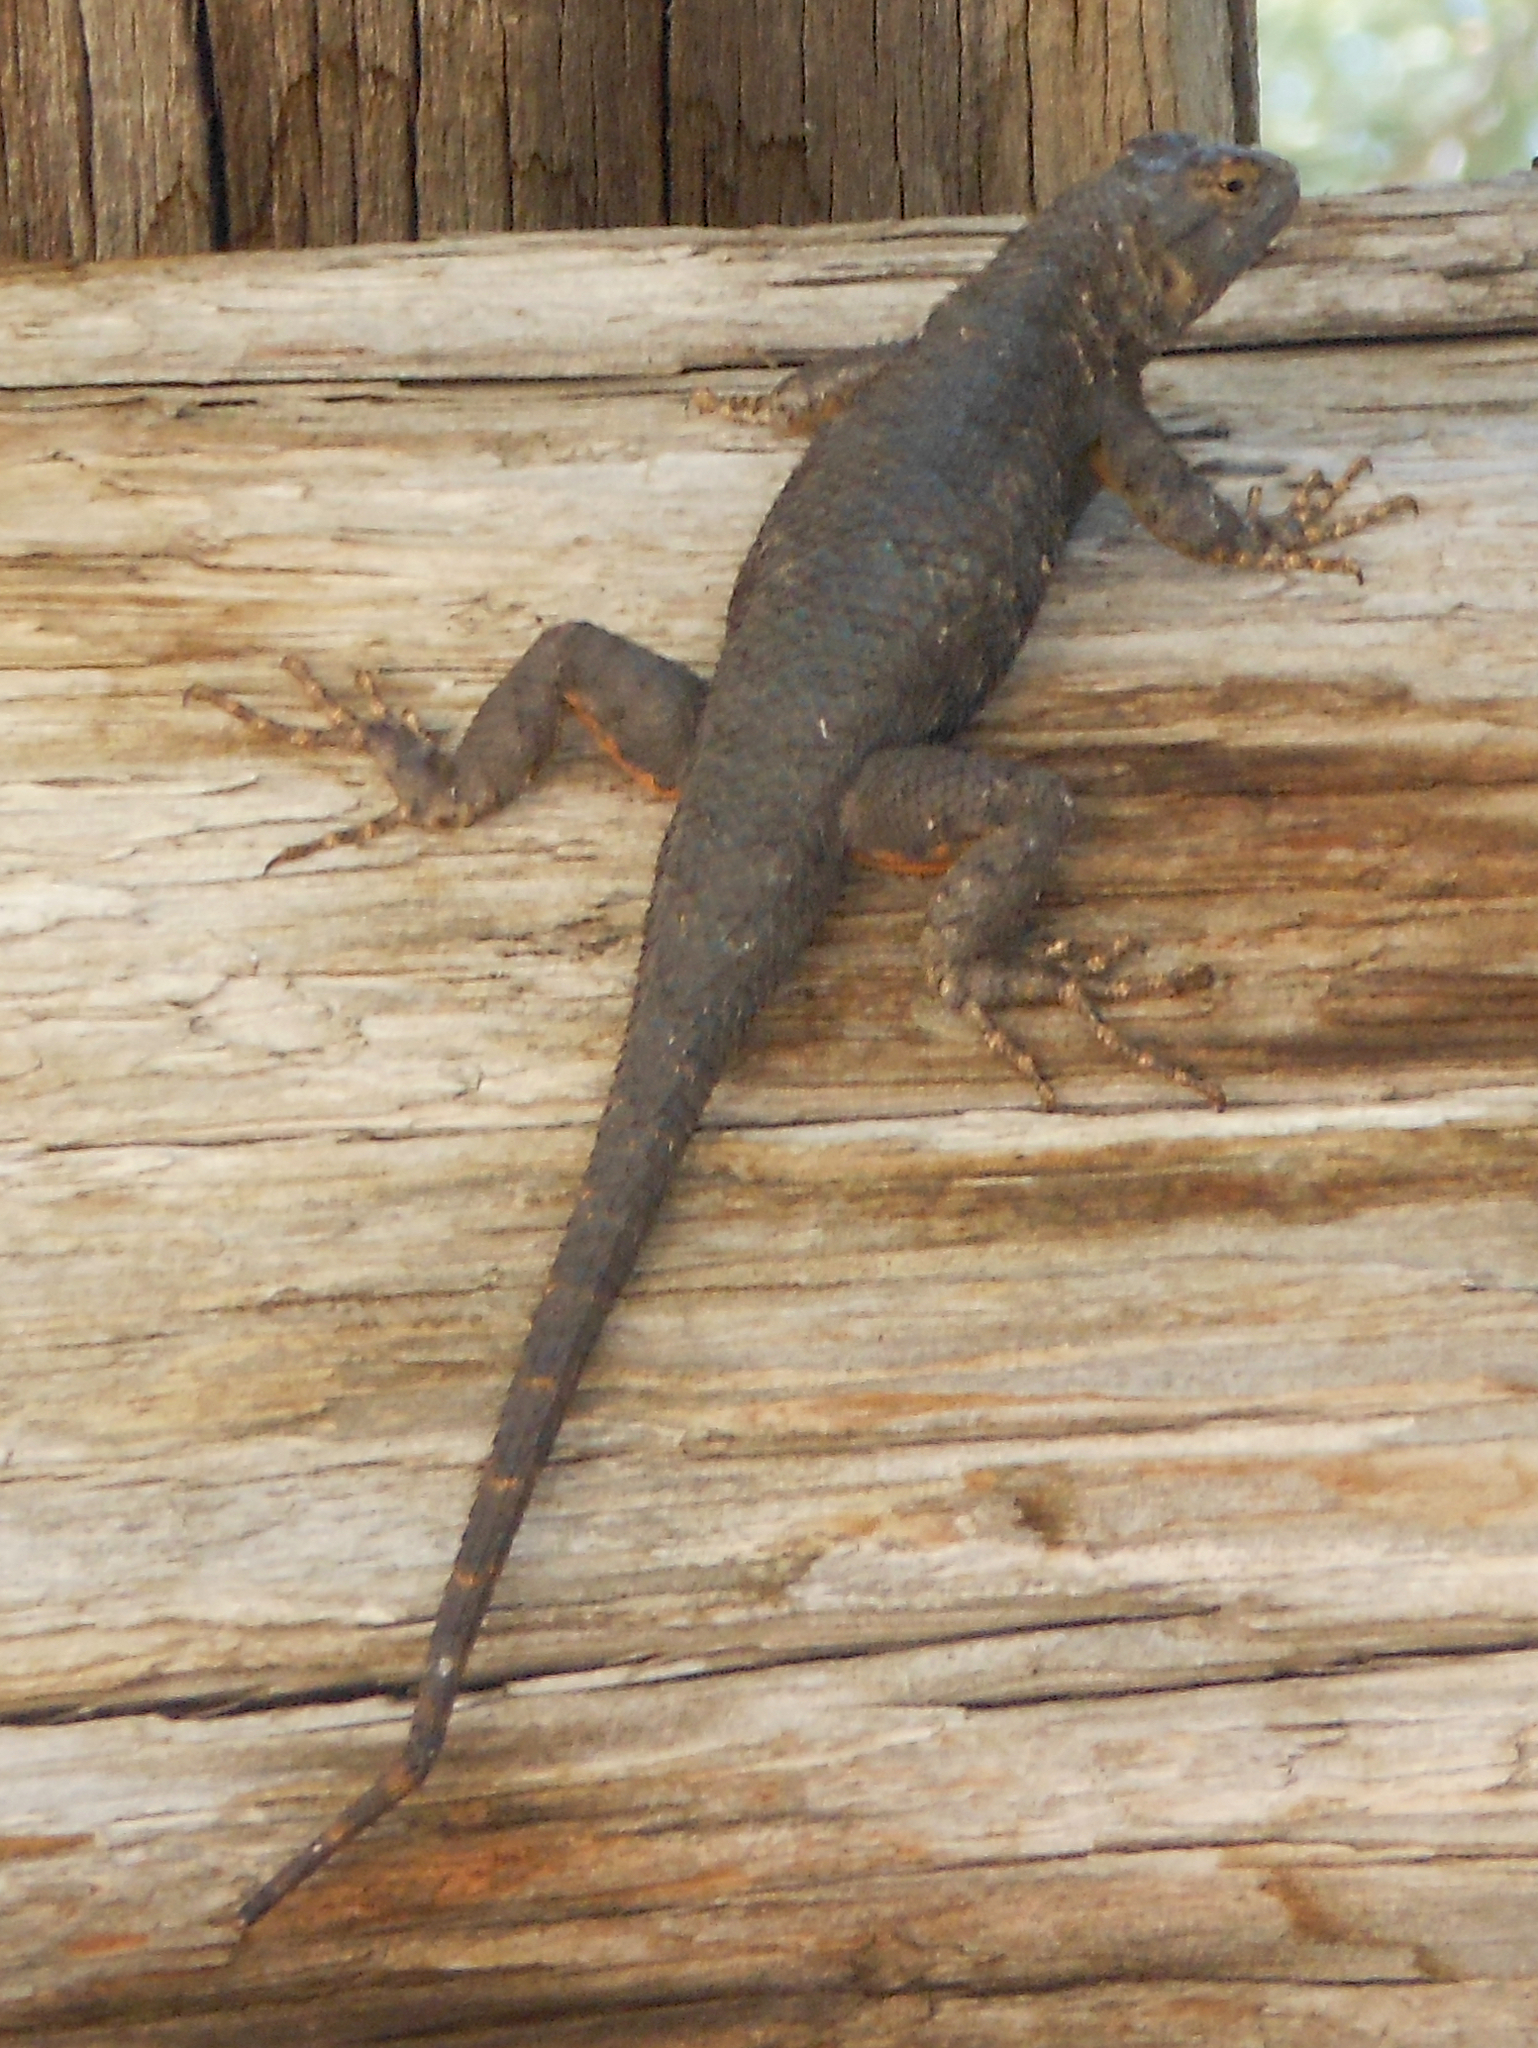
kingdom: Animalia
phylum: Chordata
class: Squamata
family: Phrynosomatidae
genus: Sceloporus
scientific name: Sceloporus occidentalis
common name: Western fence lizard
